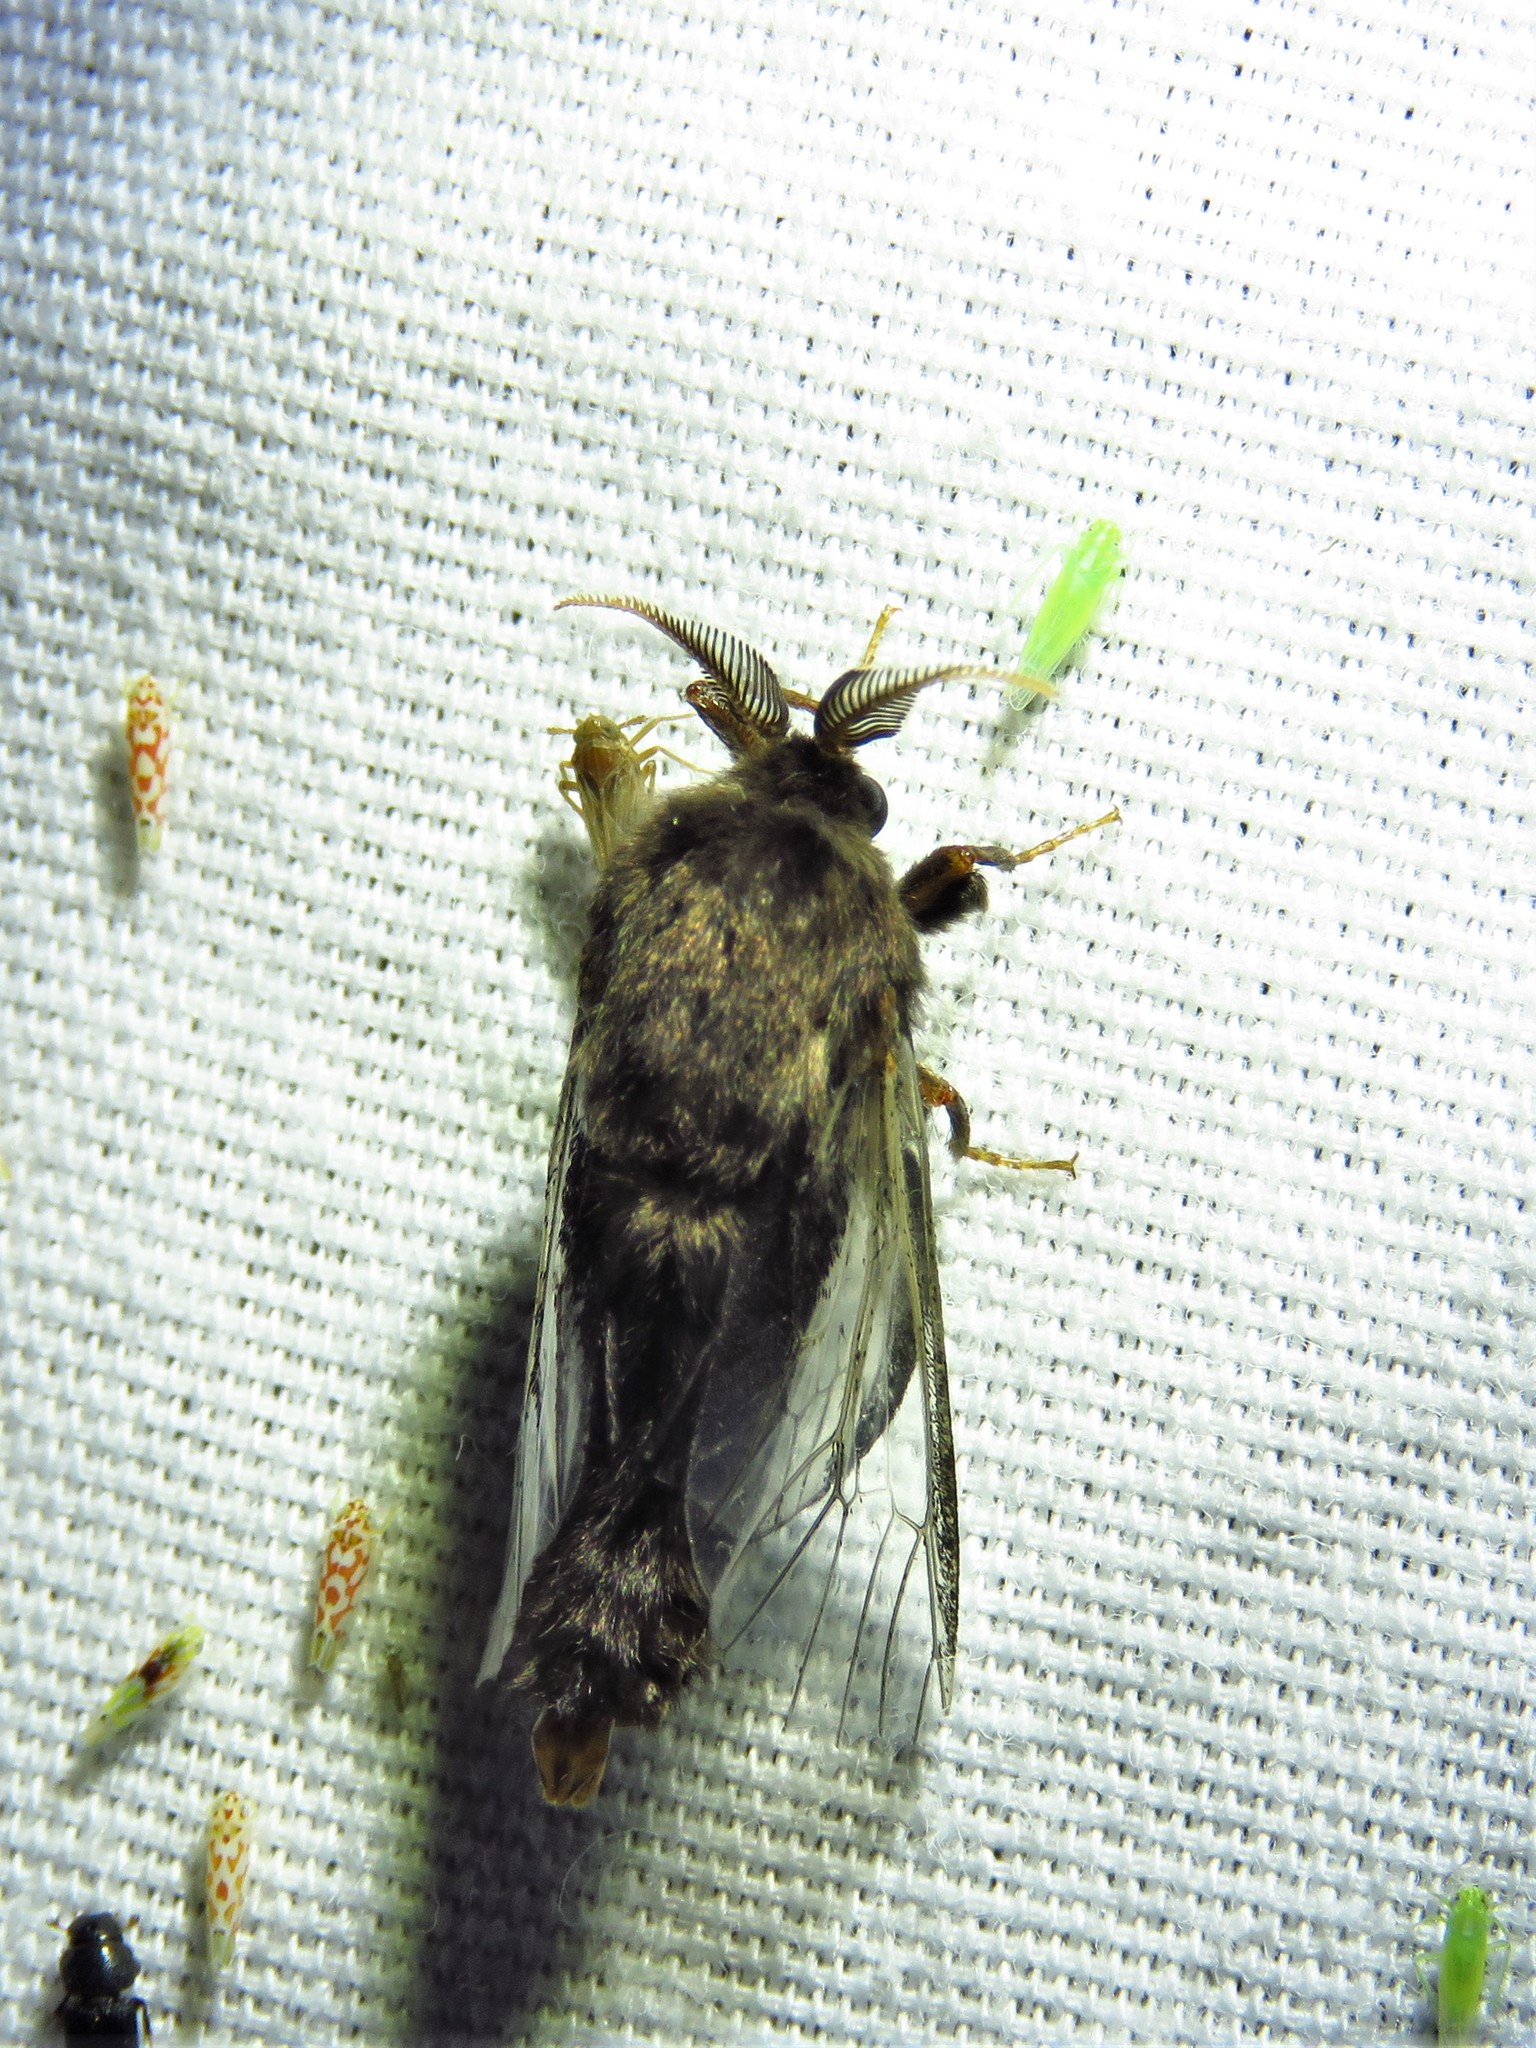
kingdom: Animalia
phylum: Arthropoda
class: Insecta
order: Lepidoptera
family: Psychidae
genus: Thyridopteryx
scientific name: Thyridopteryx ephemeraeformis
